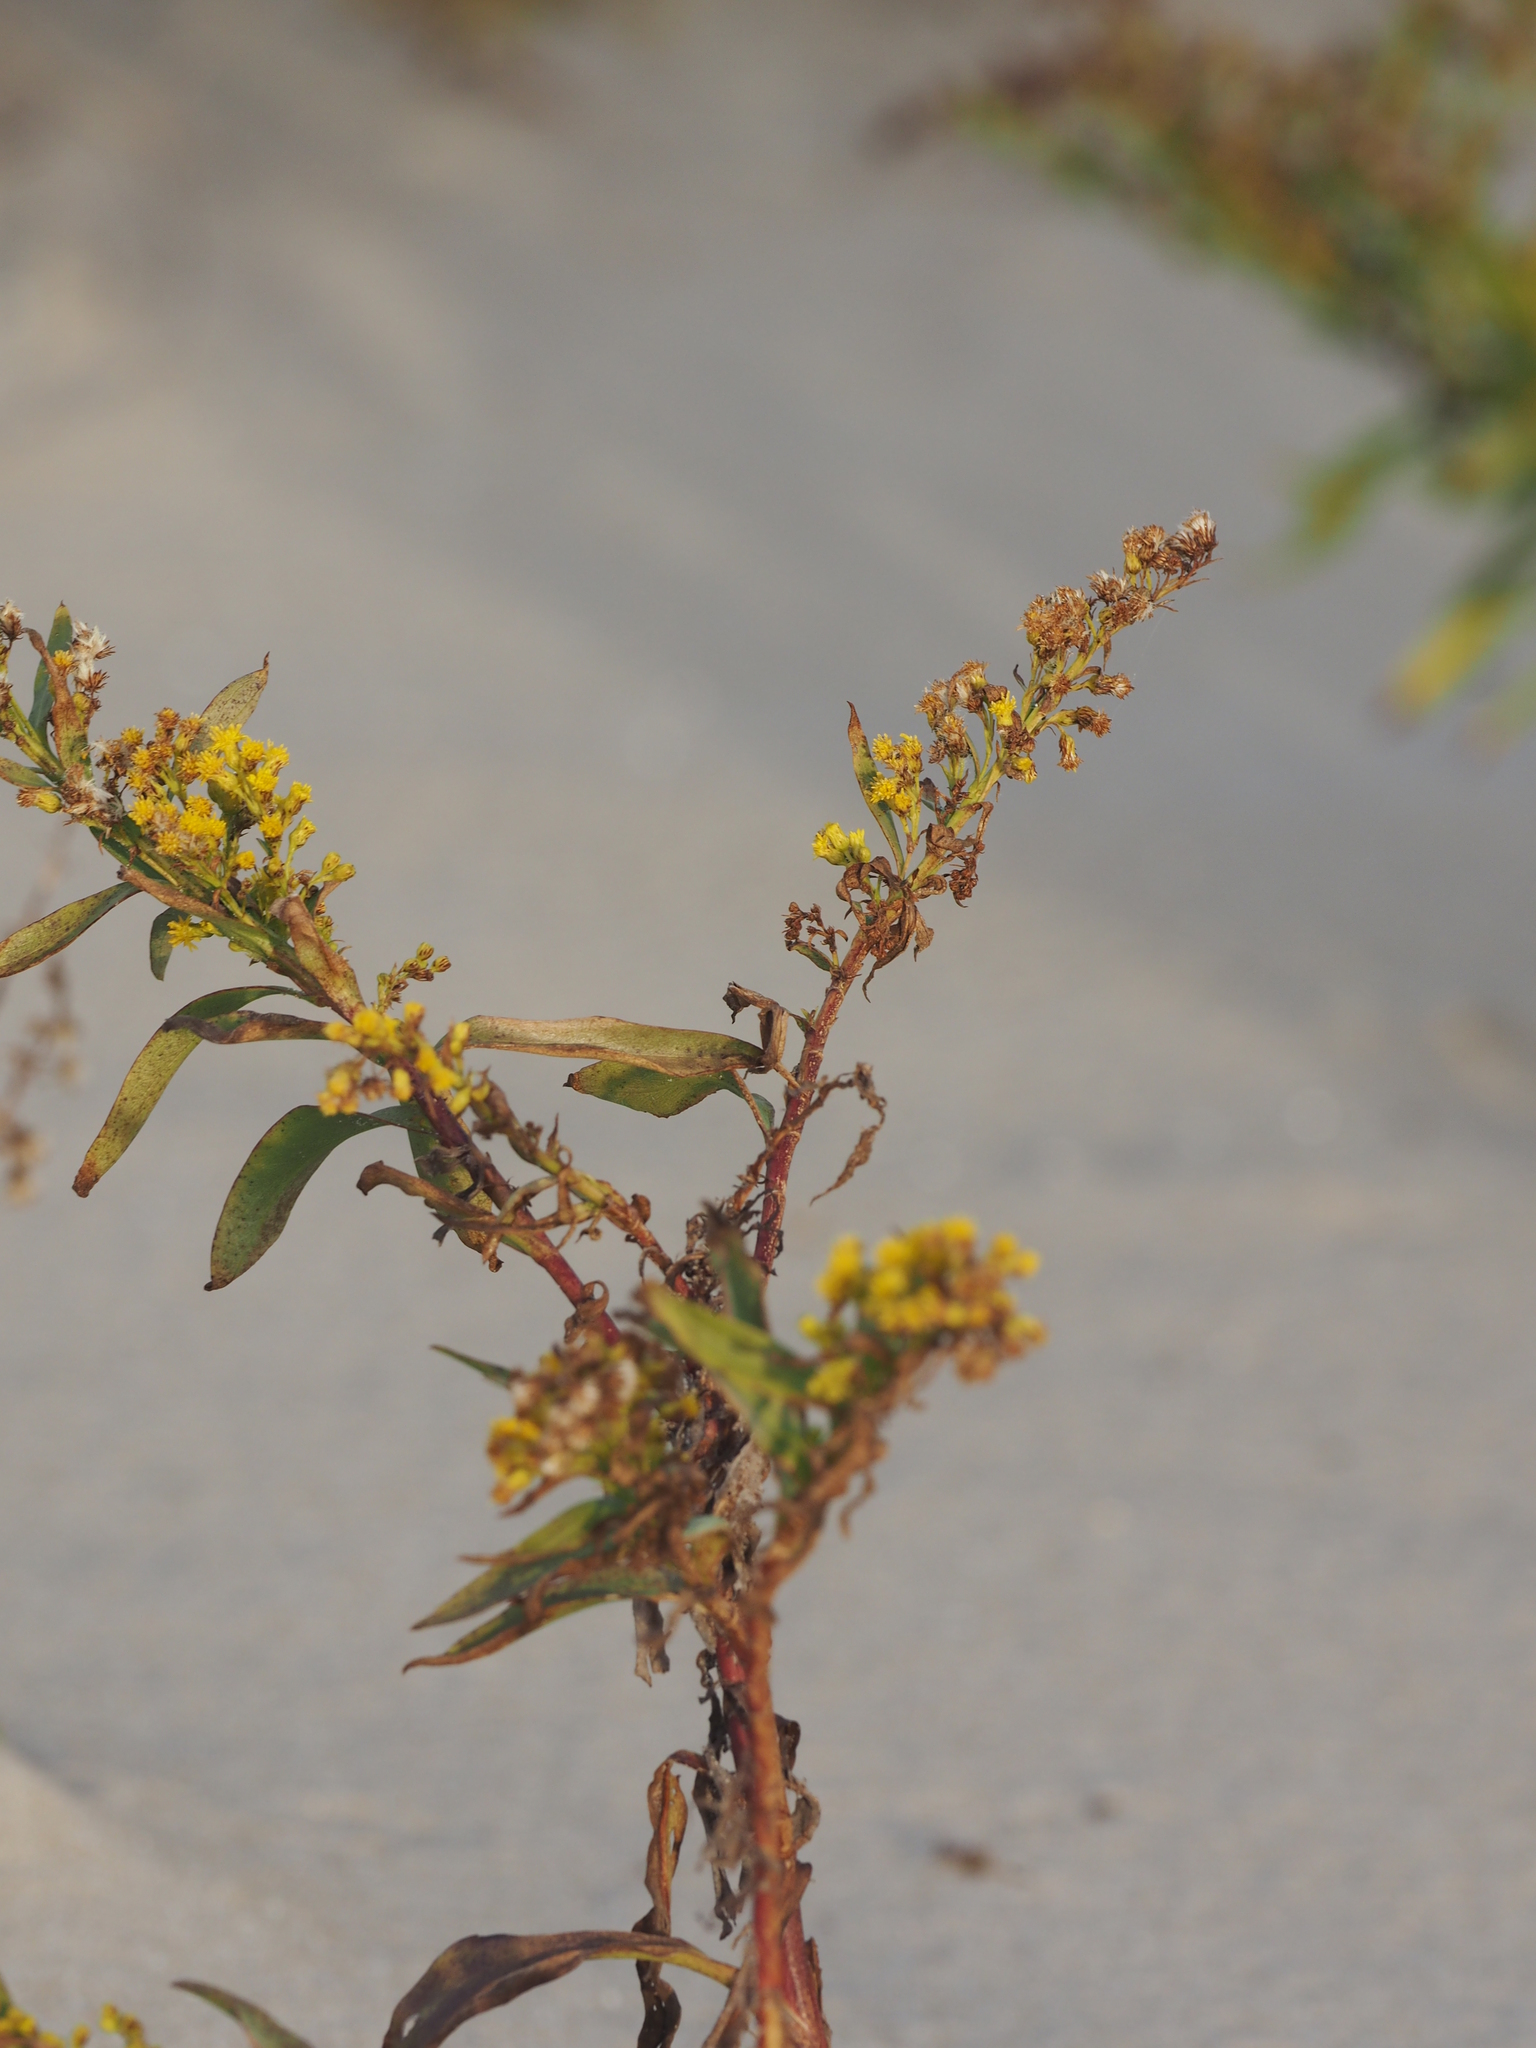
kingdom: Plantae
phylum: Tracheophyta
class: Magnoliopsida
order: Asterales
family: Asteraceae
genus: Solidago
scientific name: Solidago sempervirens
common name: Salt-marsh goldenrod
